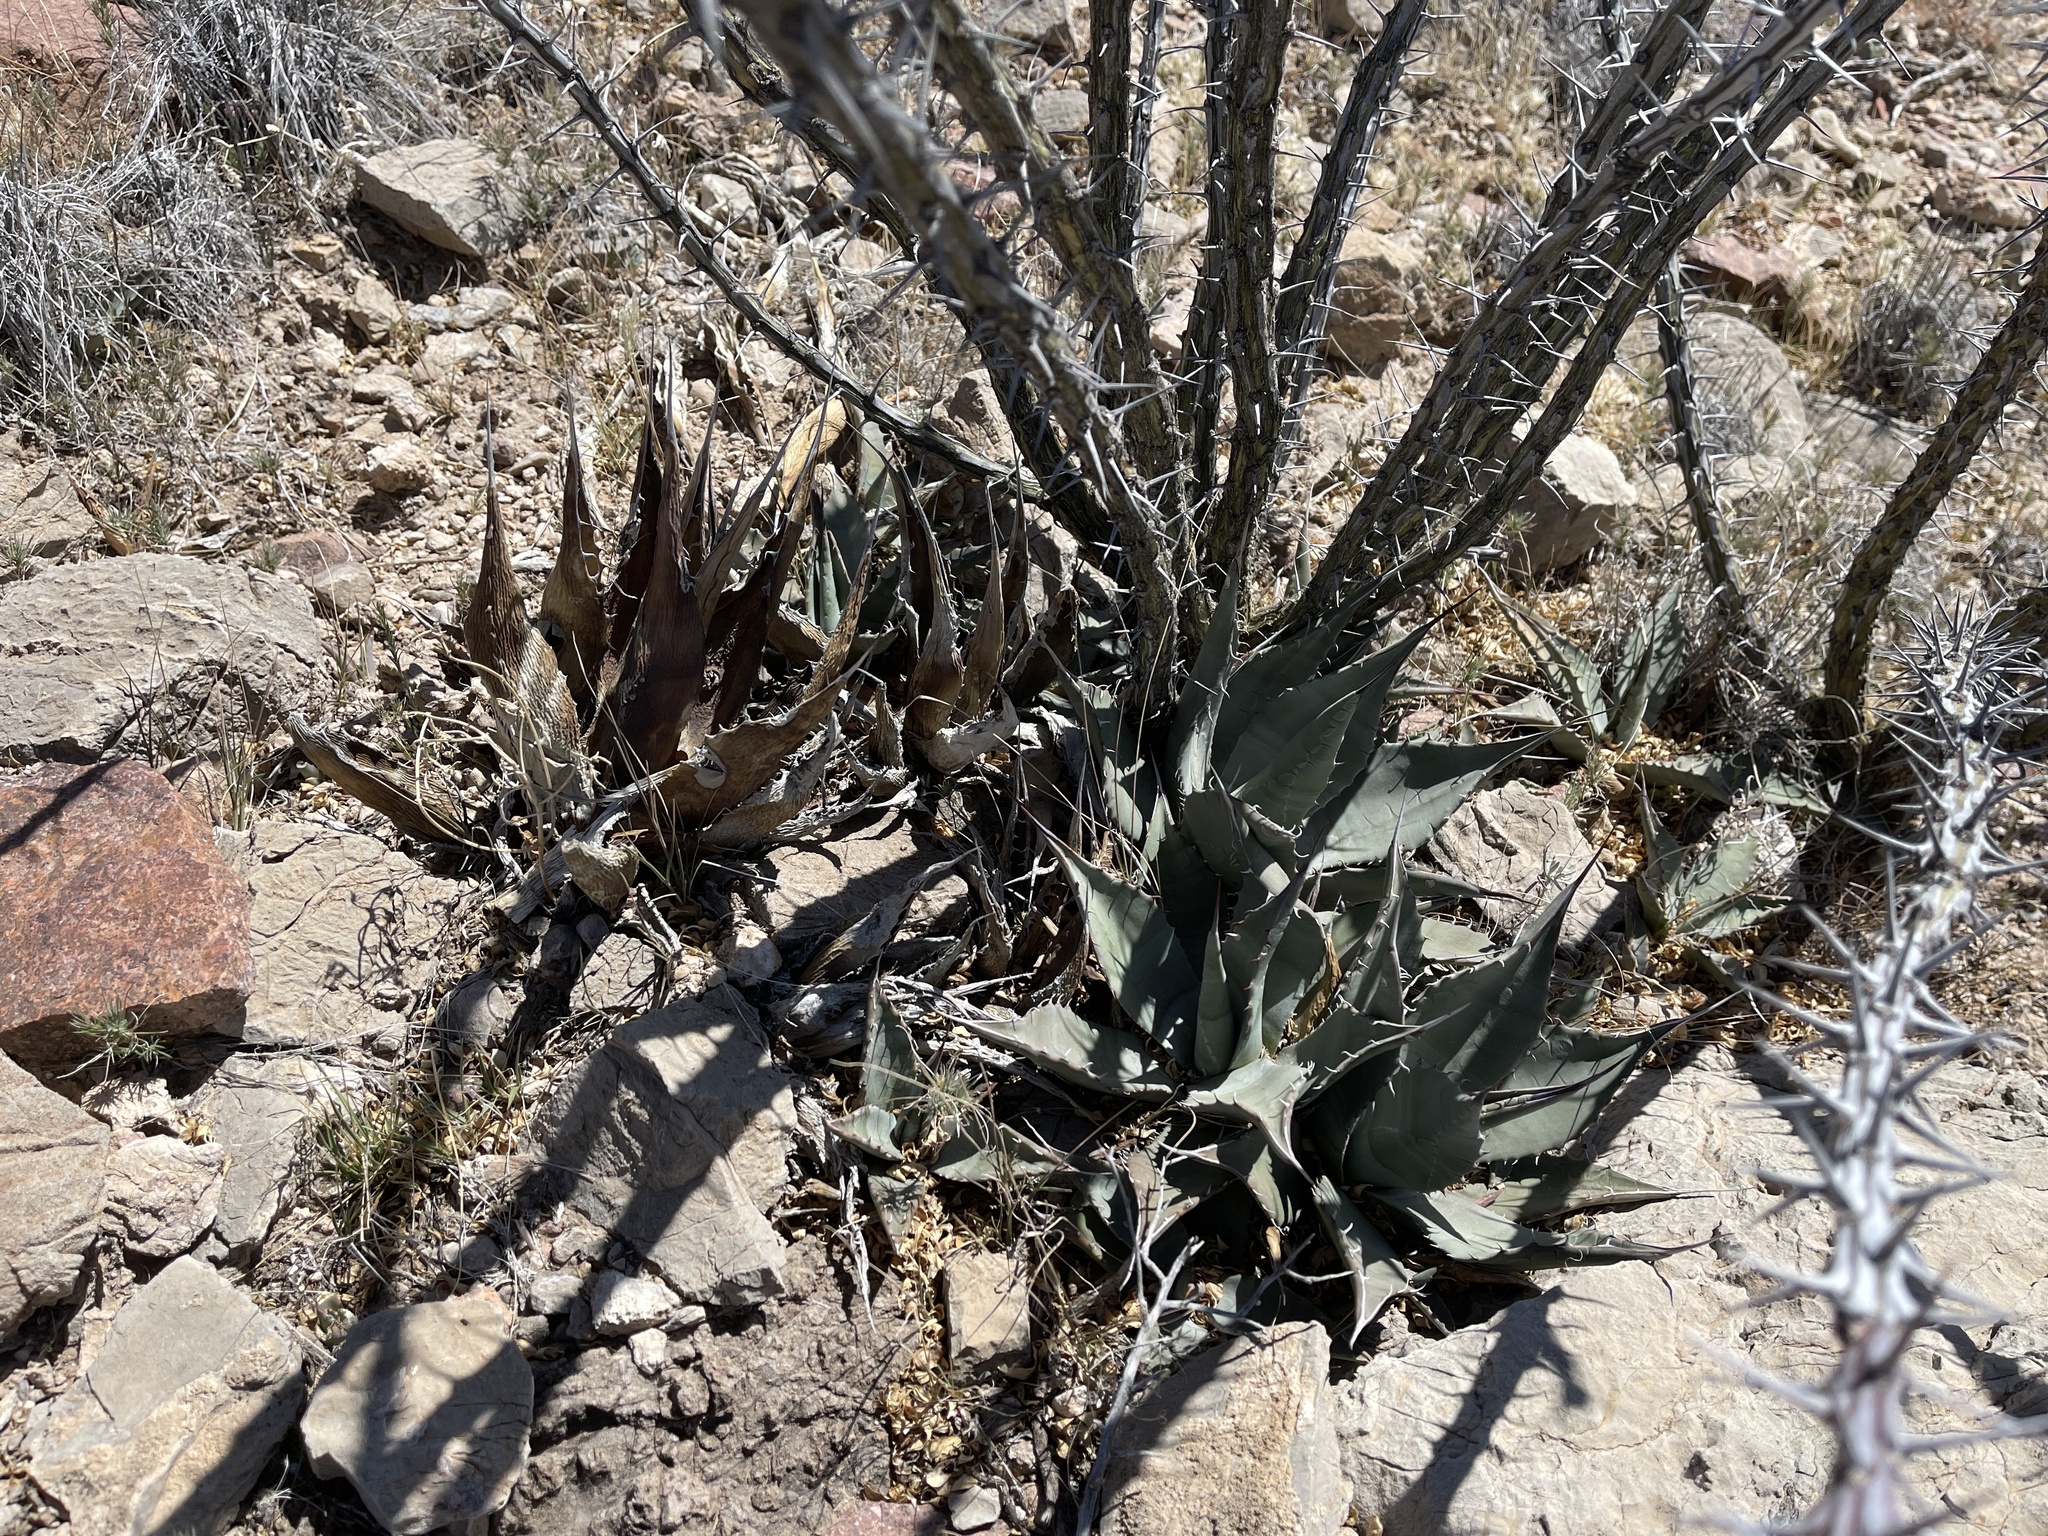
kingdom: Plantae
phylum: Tracheophyta
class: Liliopsida
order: Asparagales
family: Asparagaceae
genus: Agave
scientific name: Agave parryi
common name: Parry's agave
